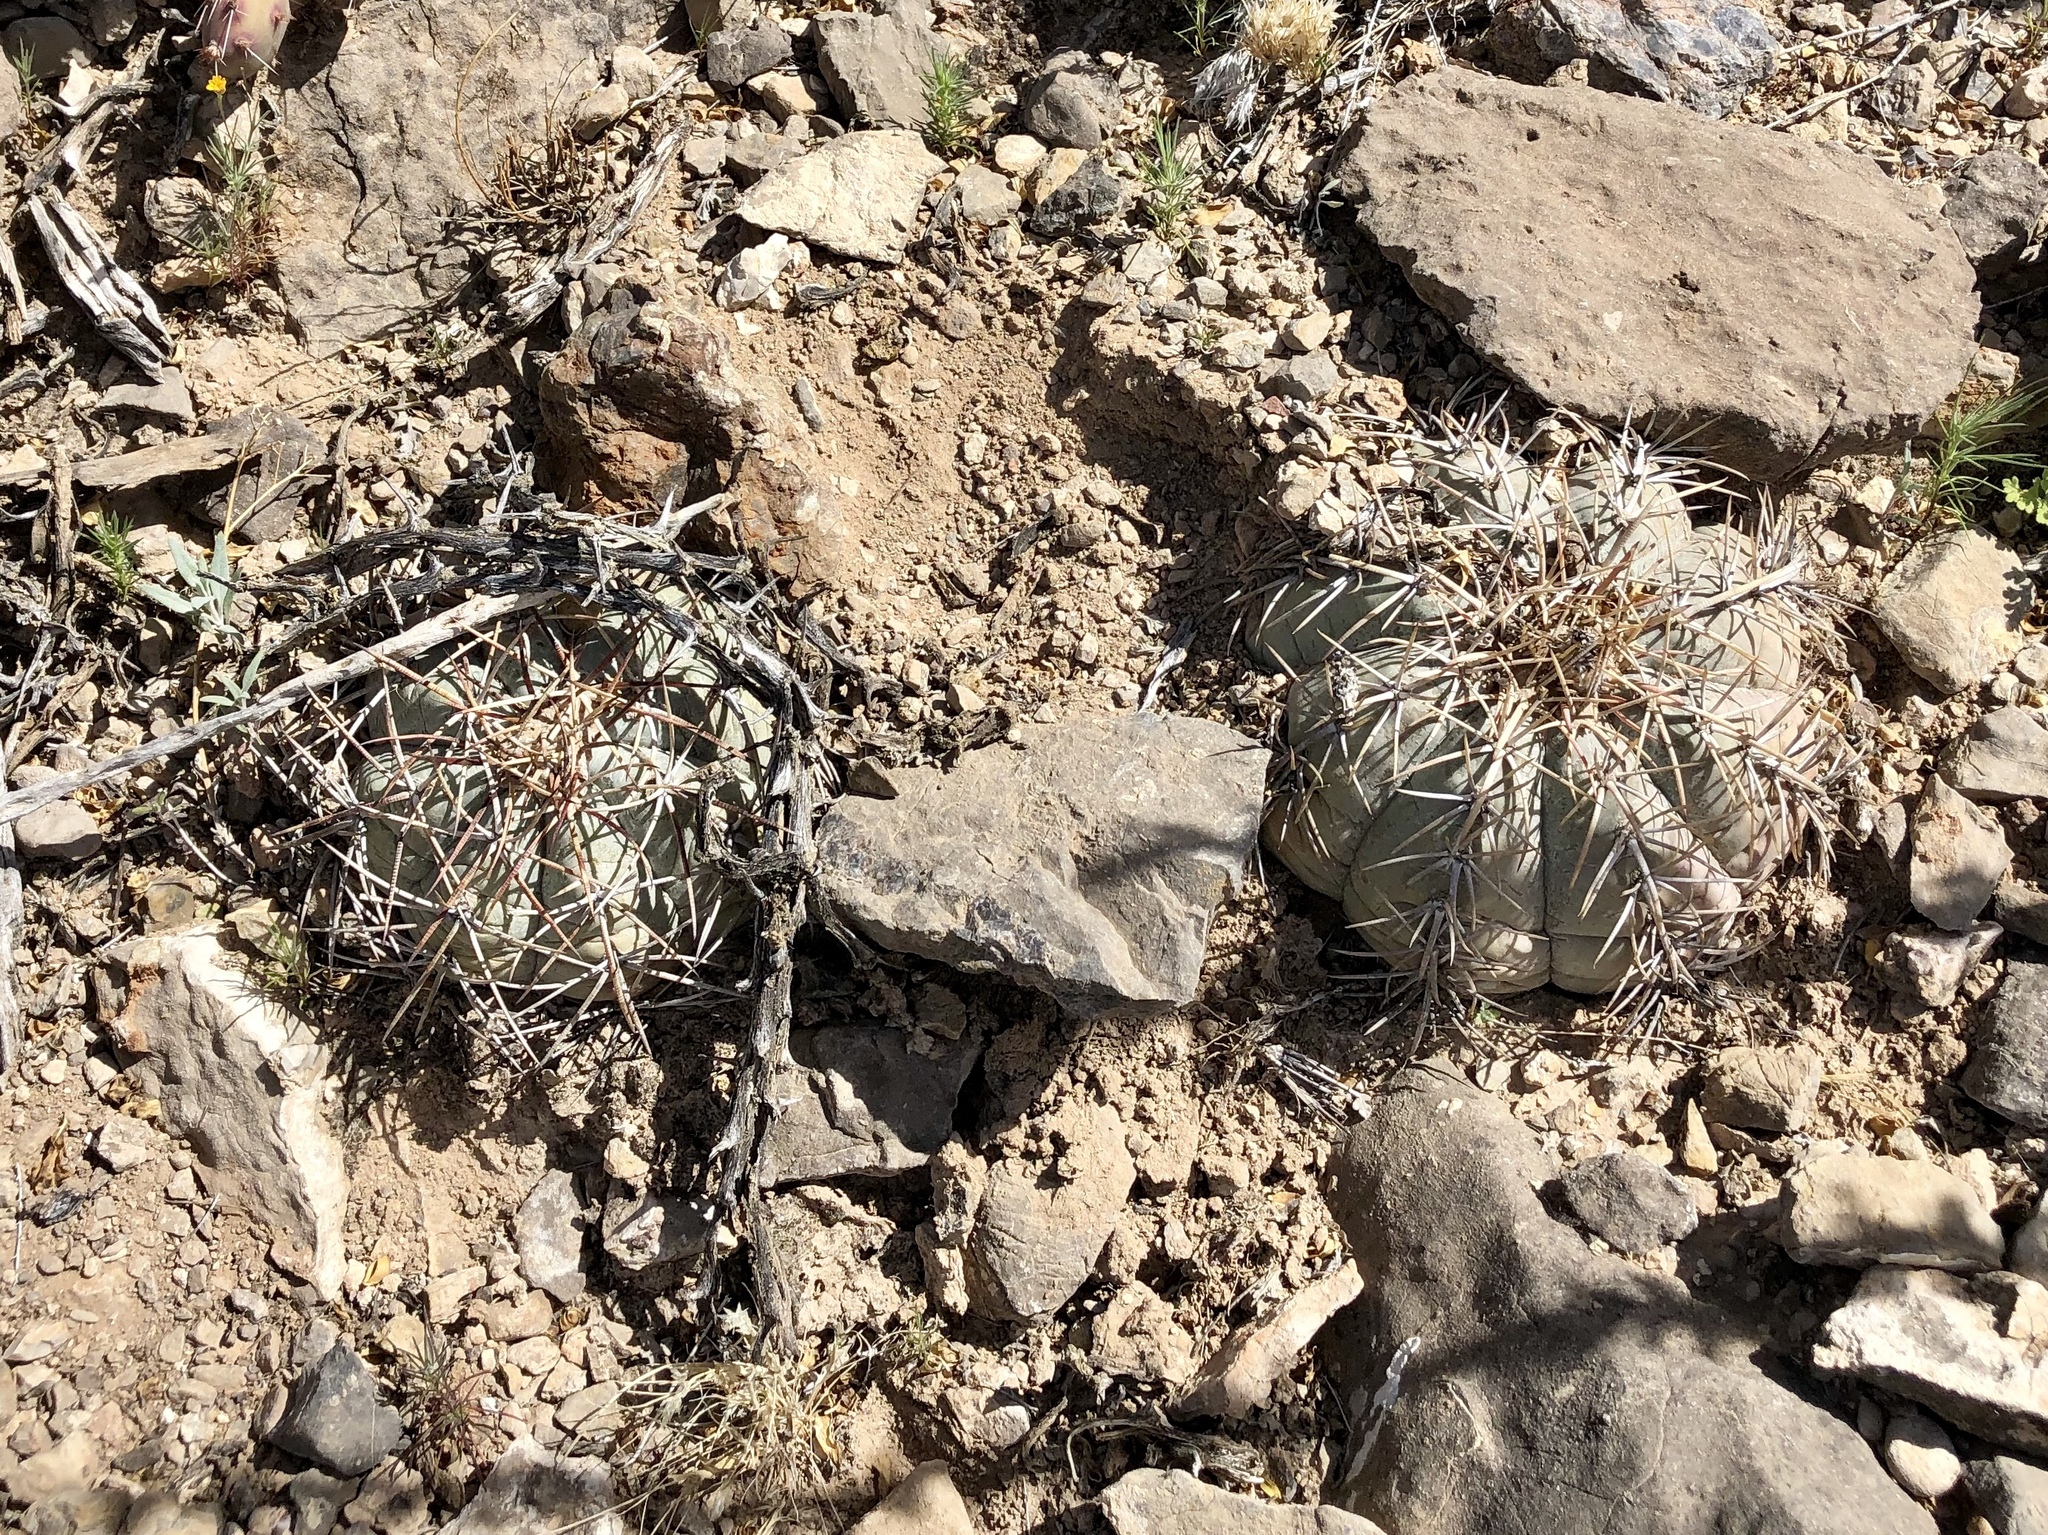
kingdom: Plantae
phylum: Tracheophyta
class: Magnoliopsida
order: Caryophyllales
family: Cactaceae
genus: Echinocactus
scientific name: Echinocactus horizonthalonius
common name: Devilshead
